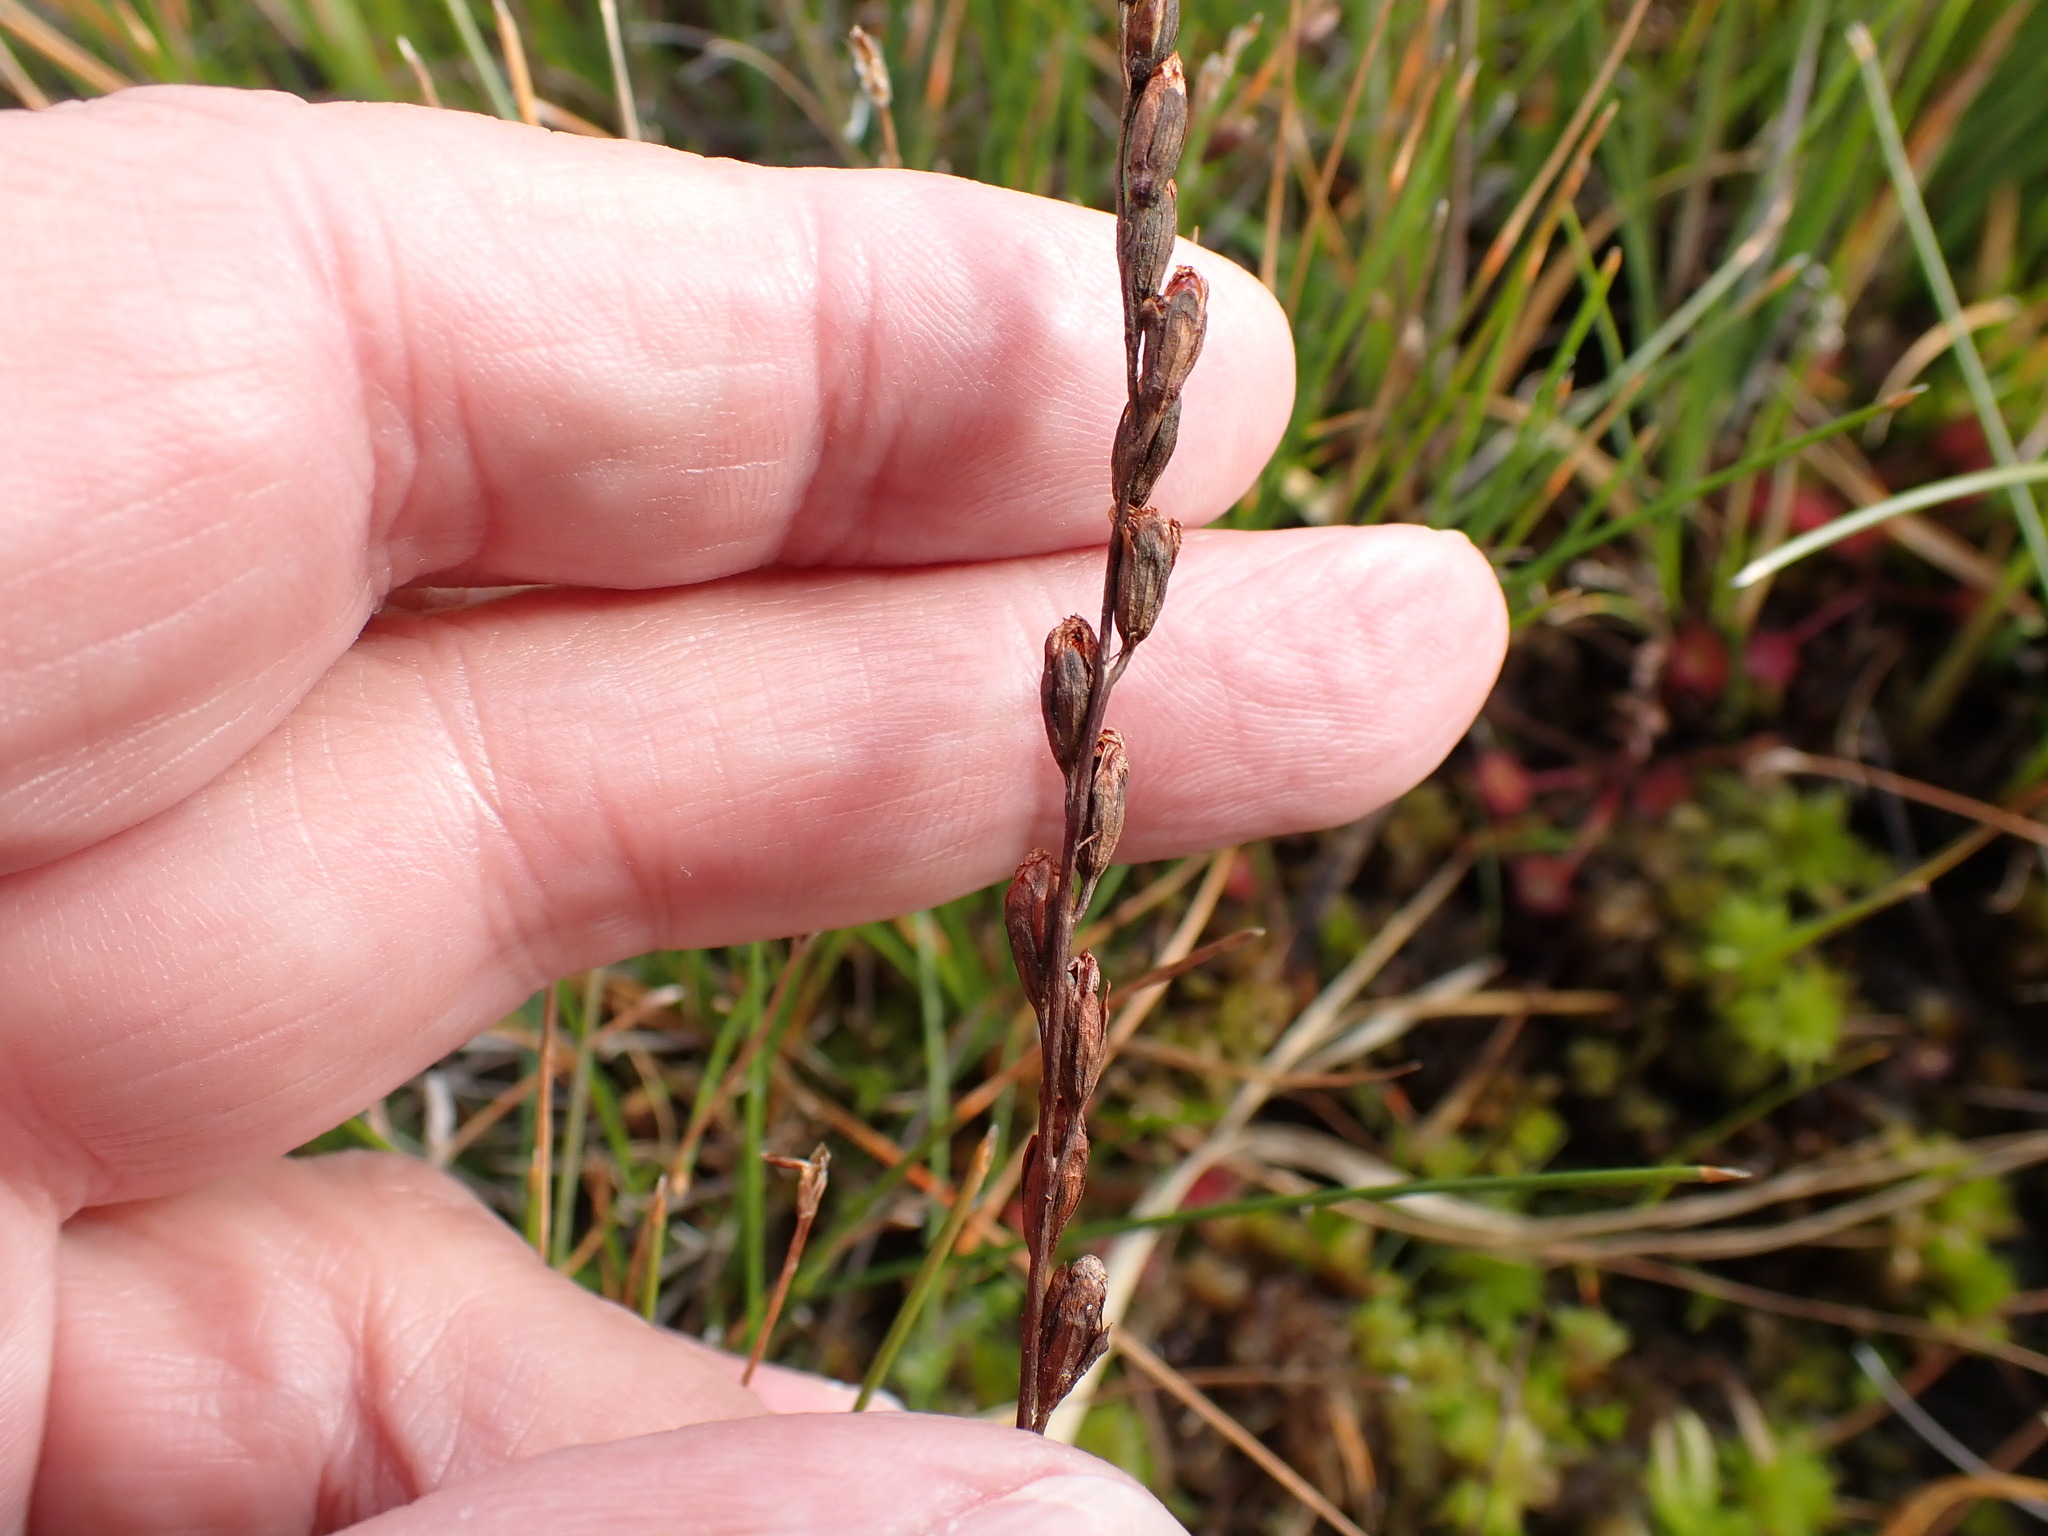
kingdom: Plantae
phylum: Tracheophyta
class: Liliopsida
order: Alismatales
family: Juncaginaceae
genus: Triglochin
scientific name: Triglochin palustris
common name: Marsh arrowgrass
